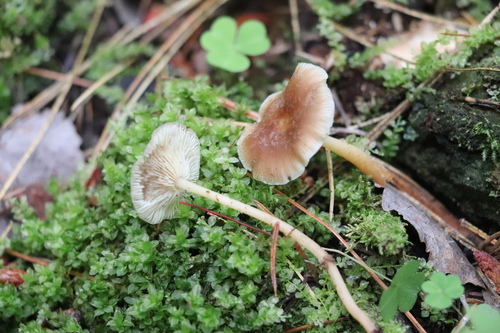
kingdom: Fungi
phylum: Basidiomycota
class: Agaricomycetes
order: Agaricales
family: Omphalotaceae
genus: Gymnopus
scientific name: Gymnopus dryophilus
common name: Penny top
